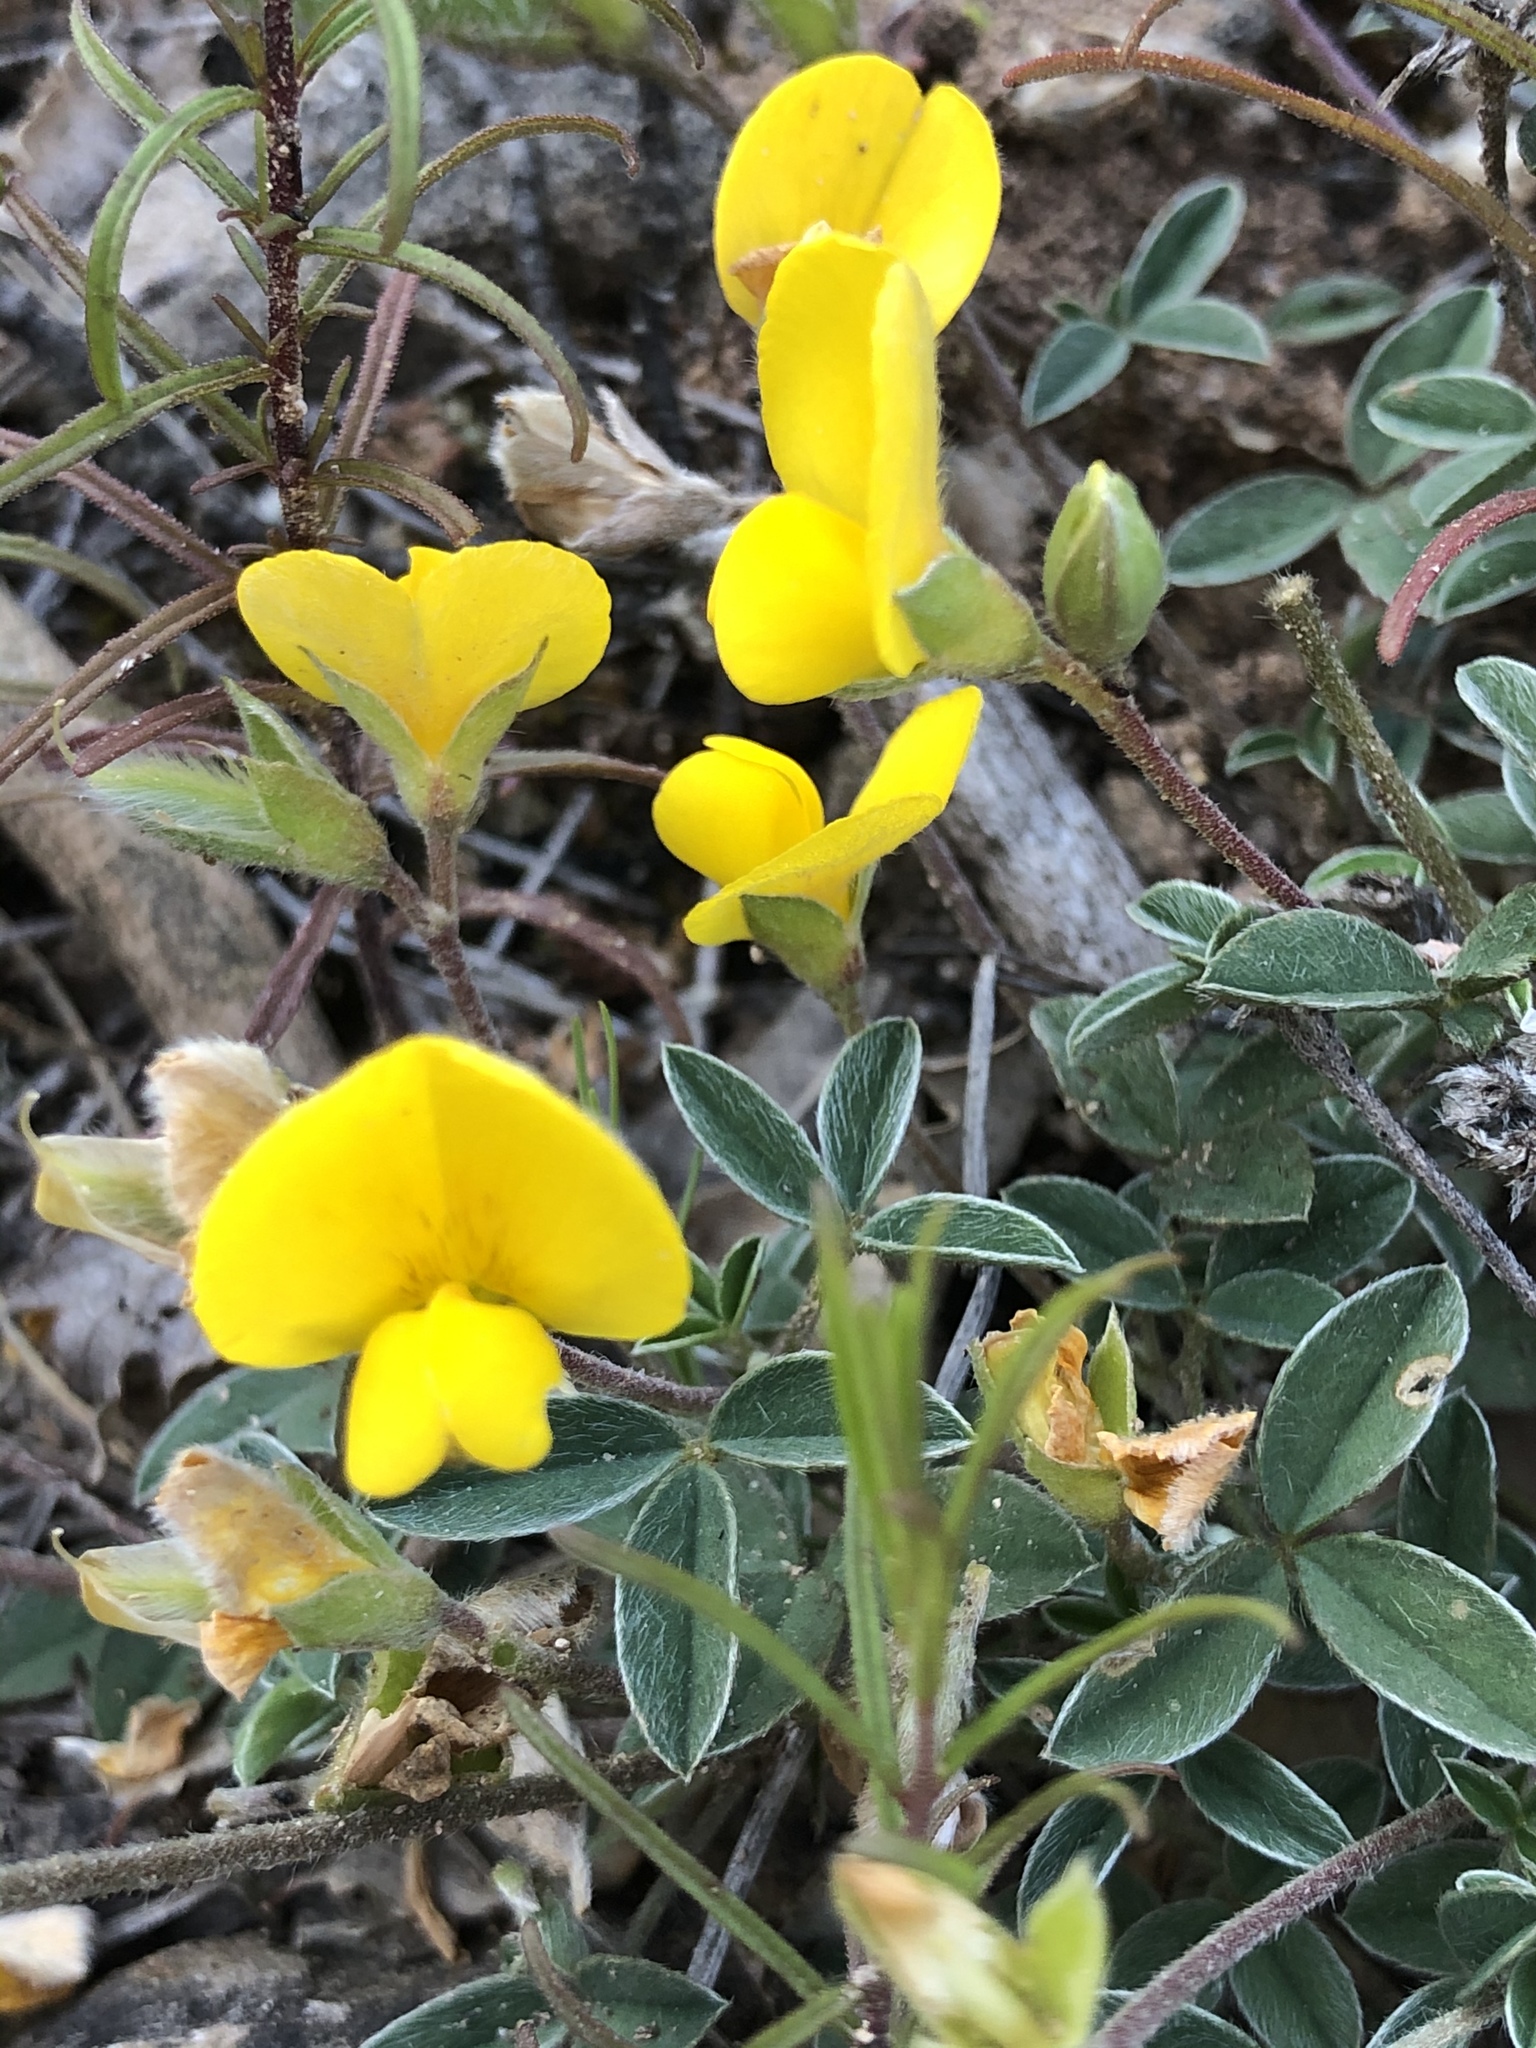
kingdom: Plantae
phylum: Tracheophyta
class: Magnoliopsida
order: Fabales
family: Fabaceae
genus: Argyrolobium
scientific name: Argyrolobium zanonii
